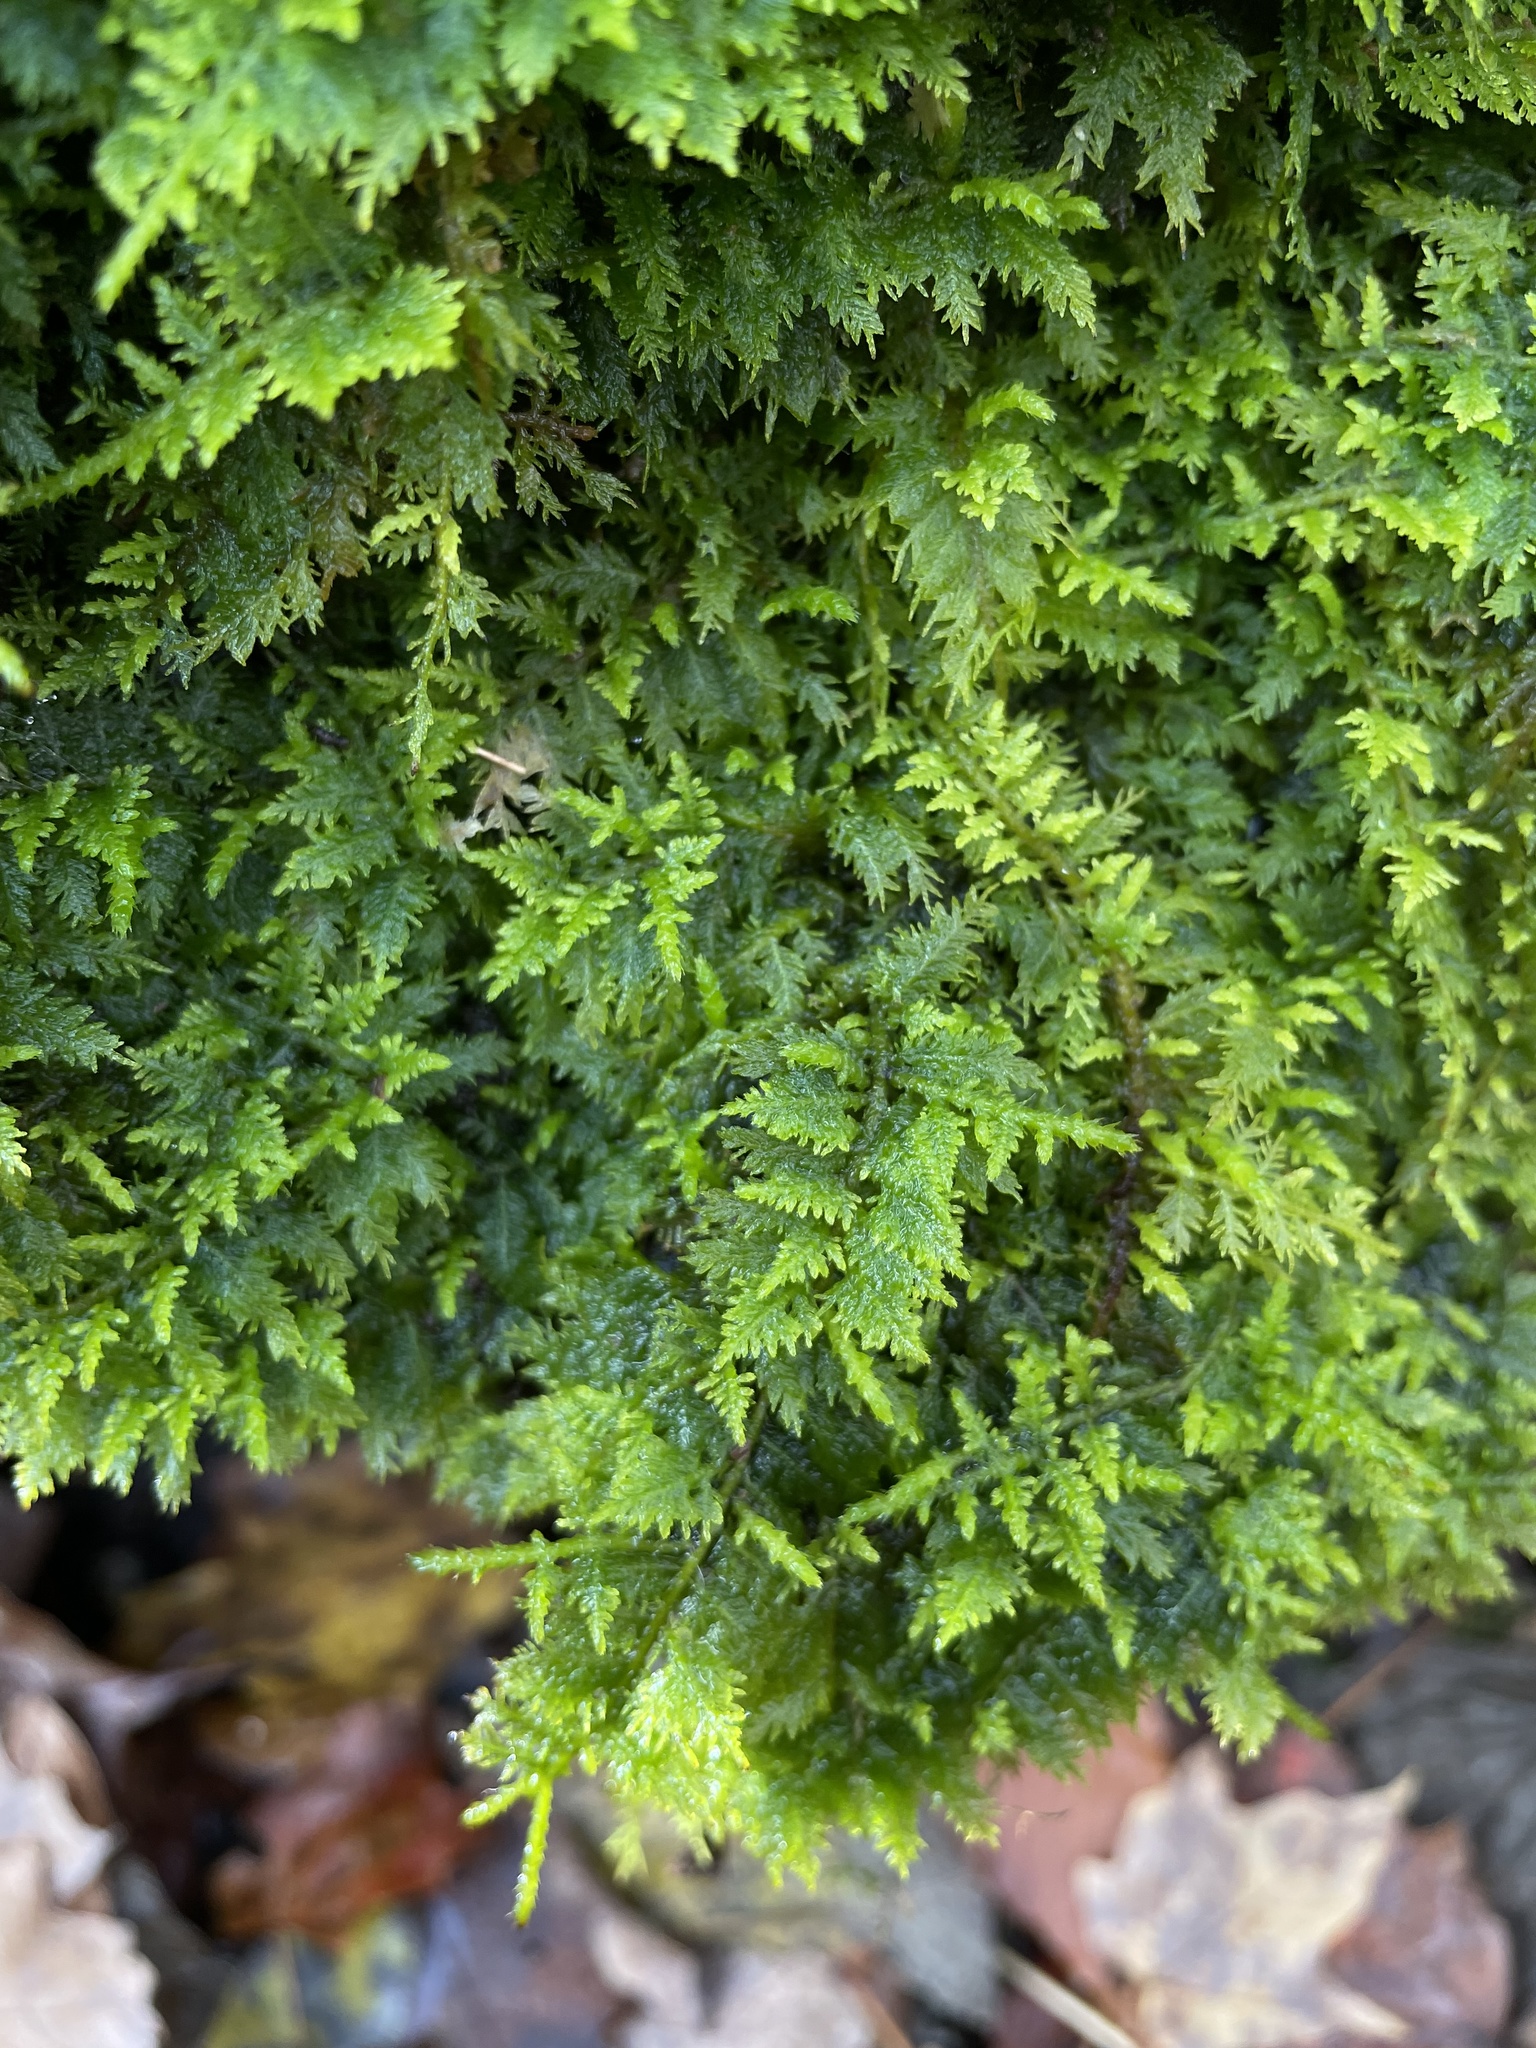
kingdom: Plantae
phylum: Bryophyta
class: Bryopsida
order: Hypnales
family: Thuidiaceae
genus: Thuidium
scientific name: Thuidium delicatulum
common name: Delicate fern moss
